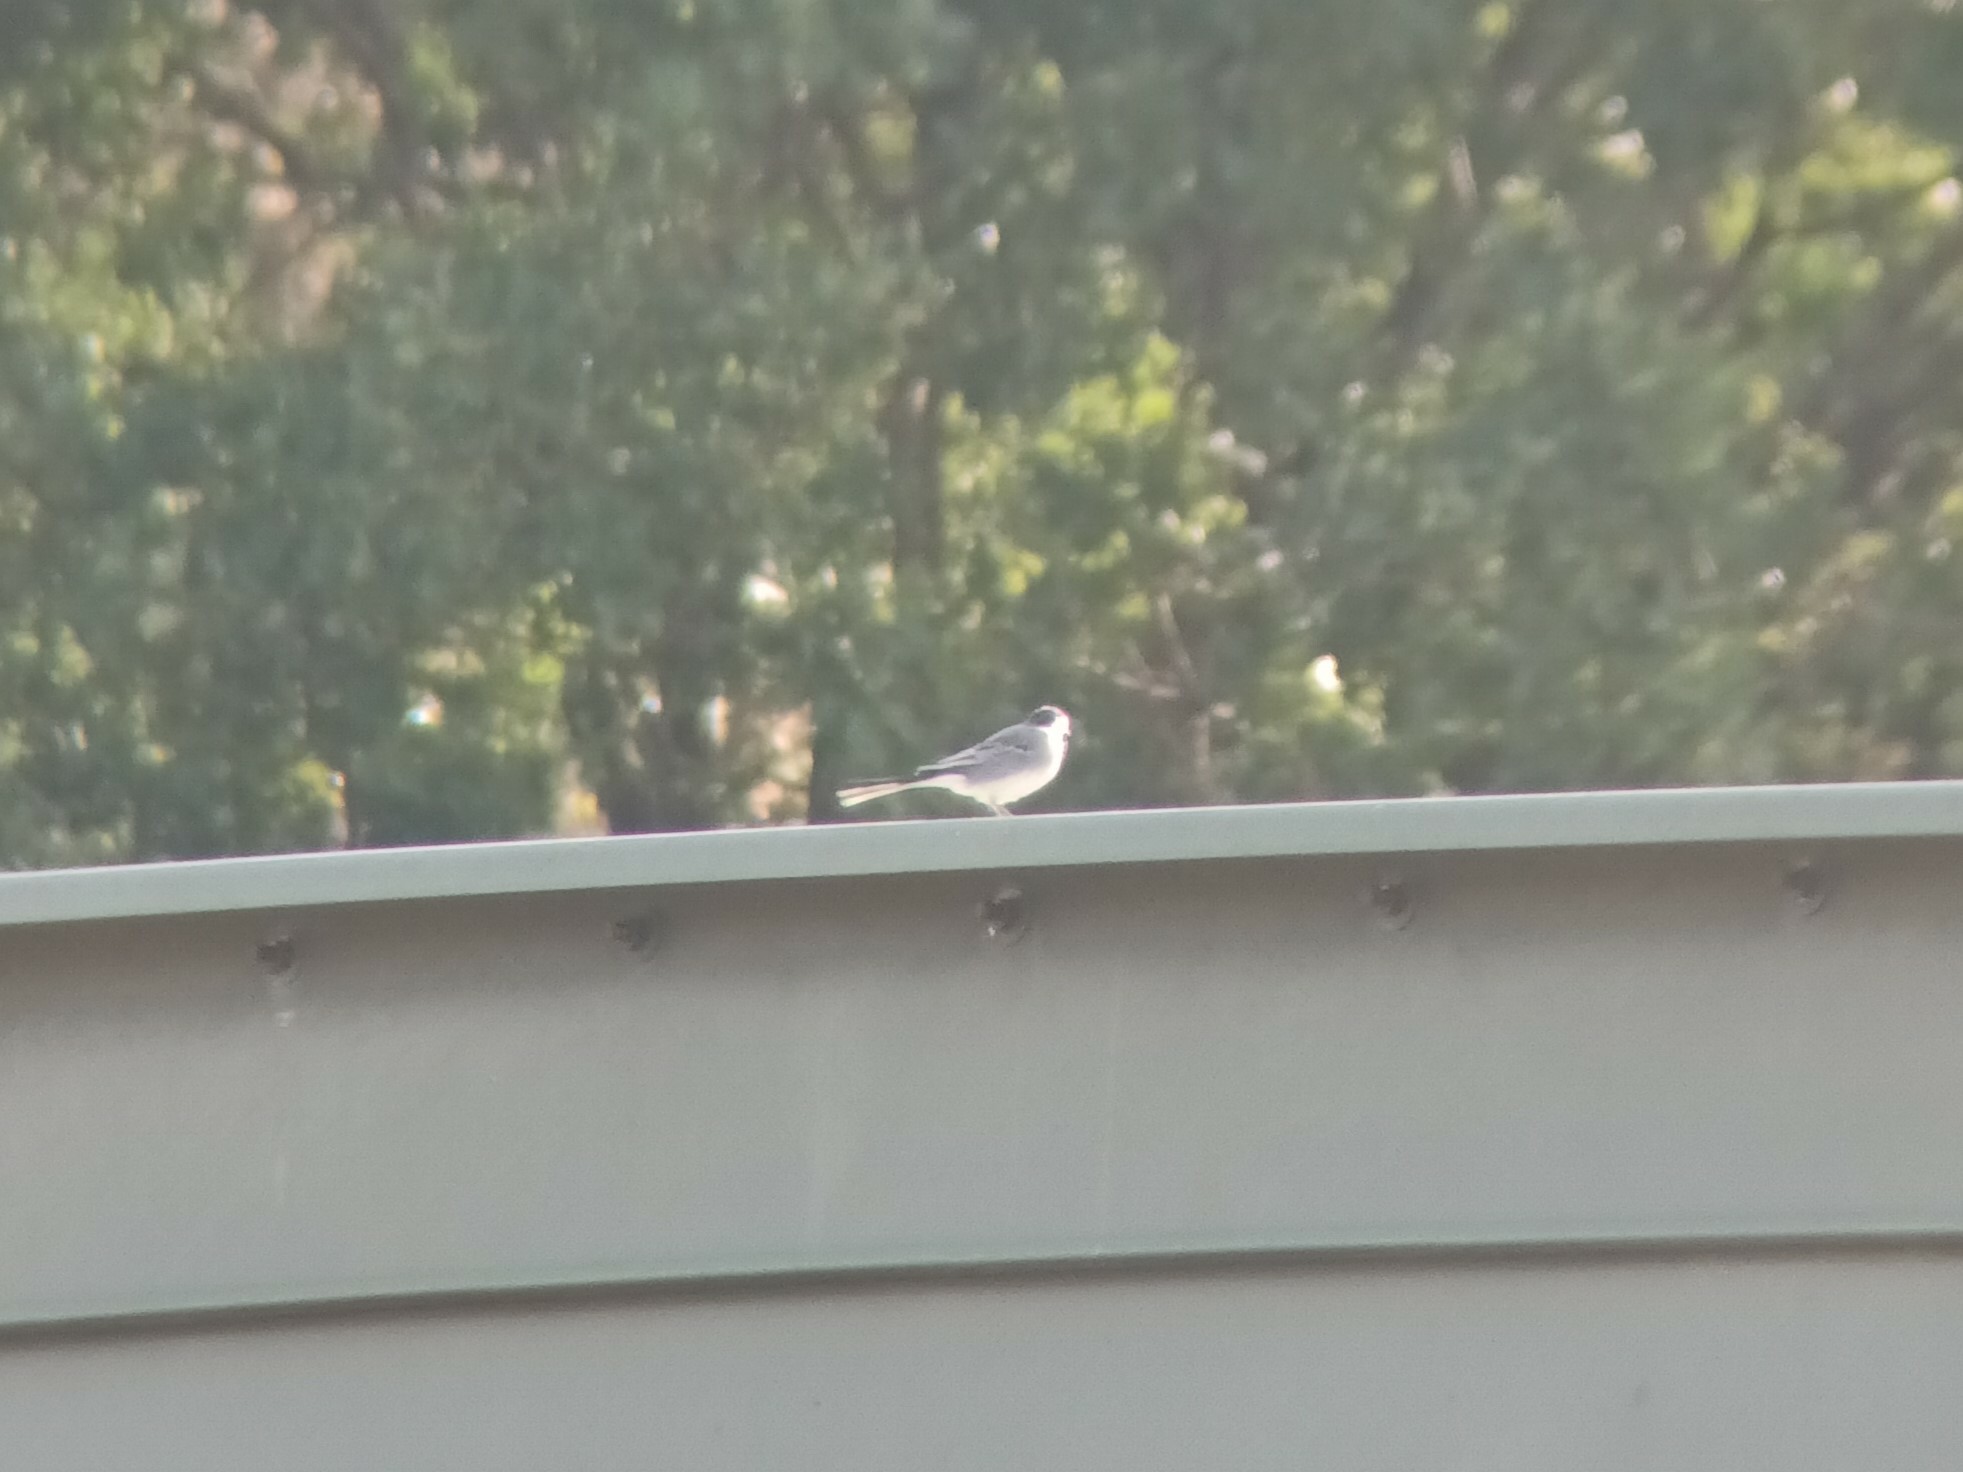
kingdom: Animalia
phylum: Chordata
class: Aves
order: Passeriformes
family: Motacillidae
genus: Motacilla
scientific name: Motacilla alba
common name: White wagtail
